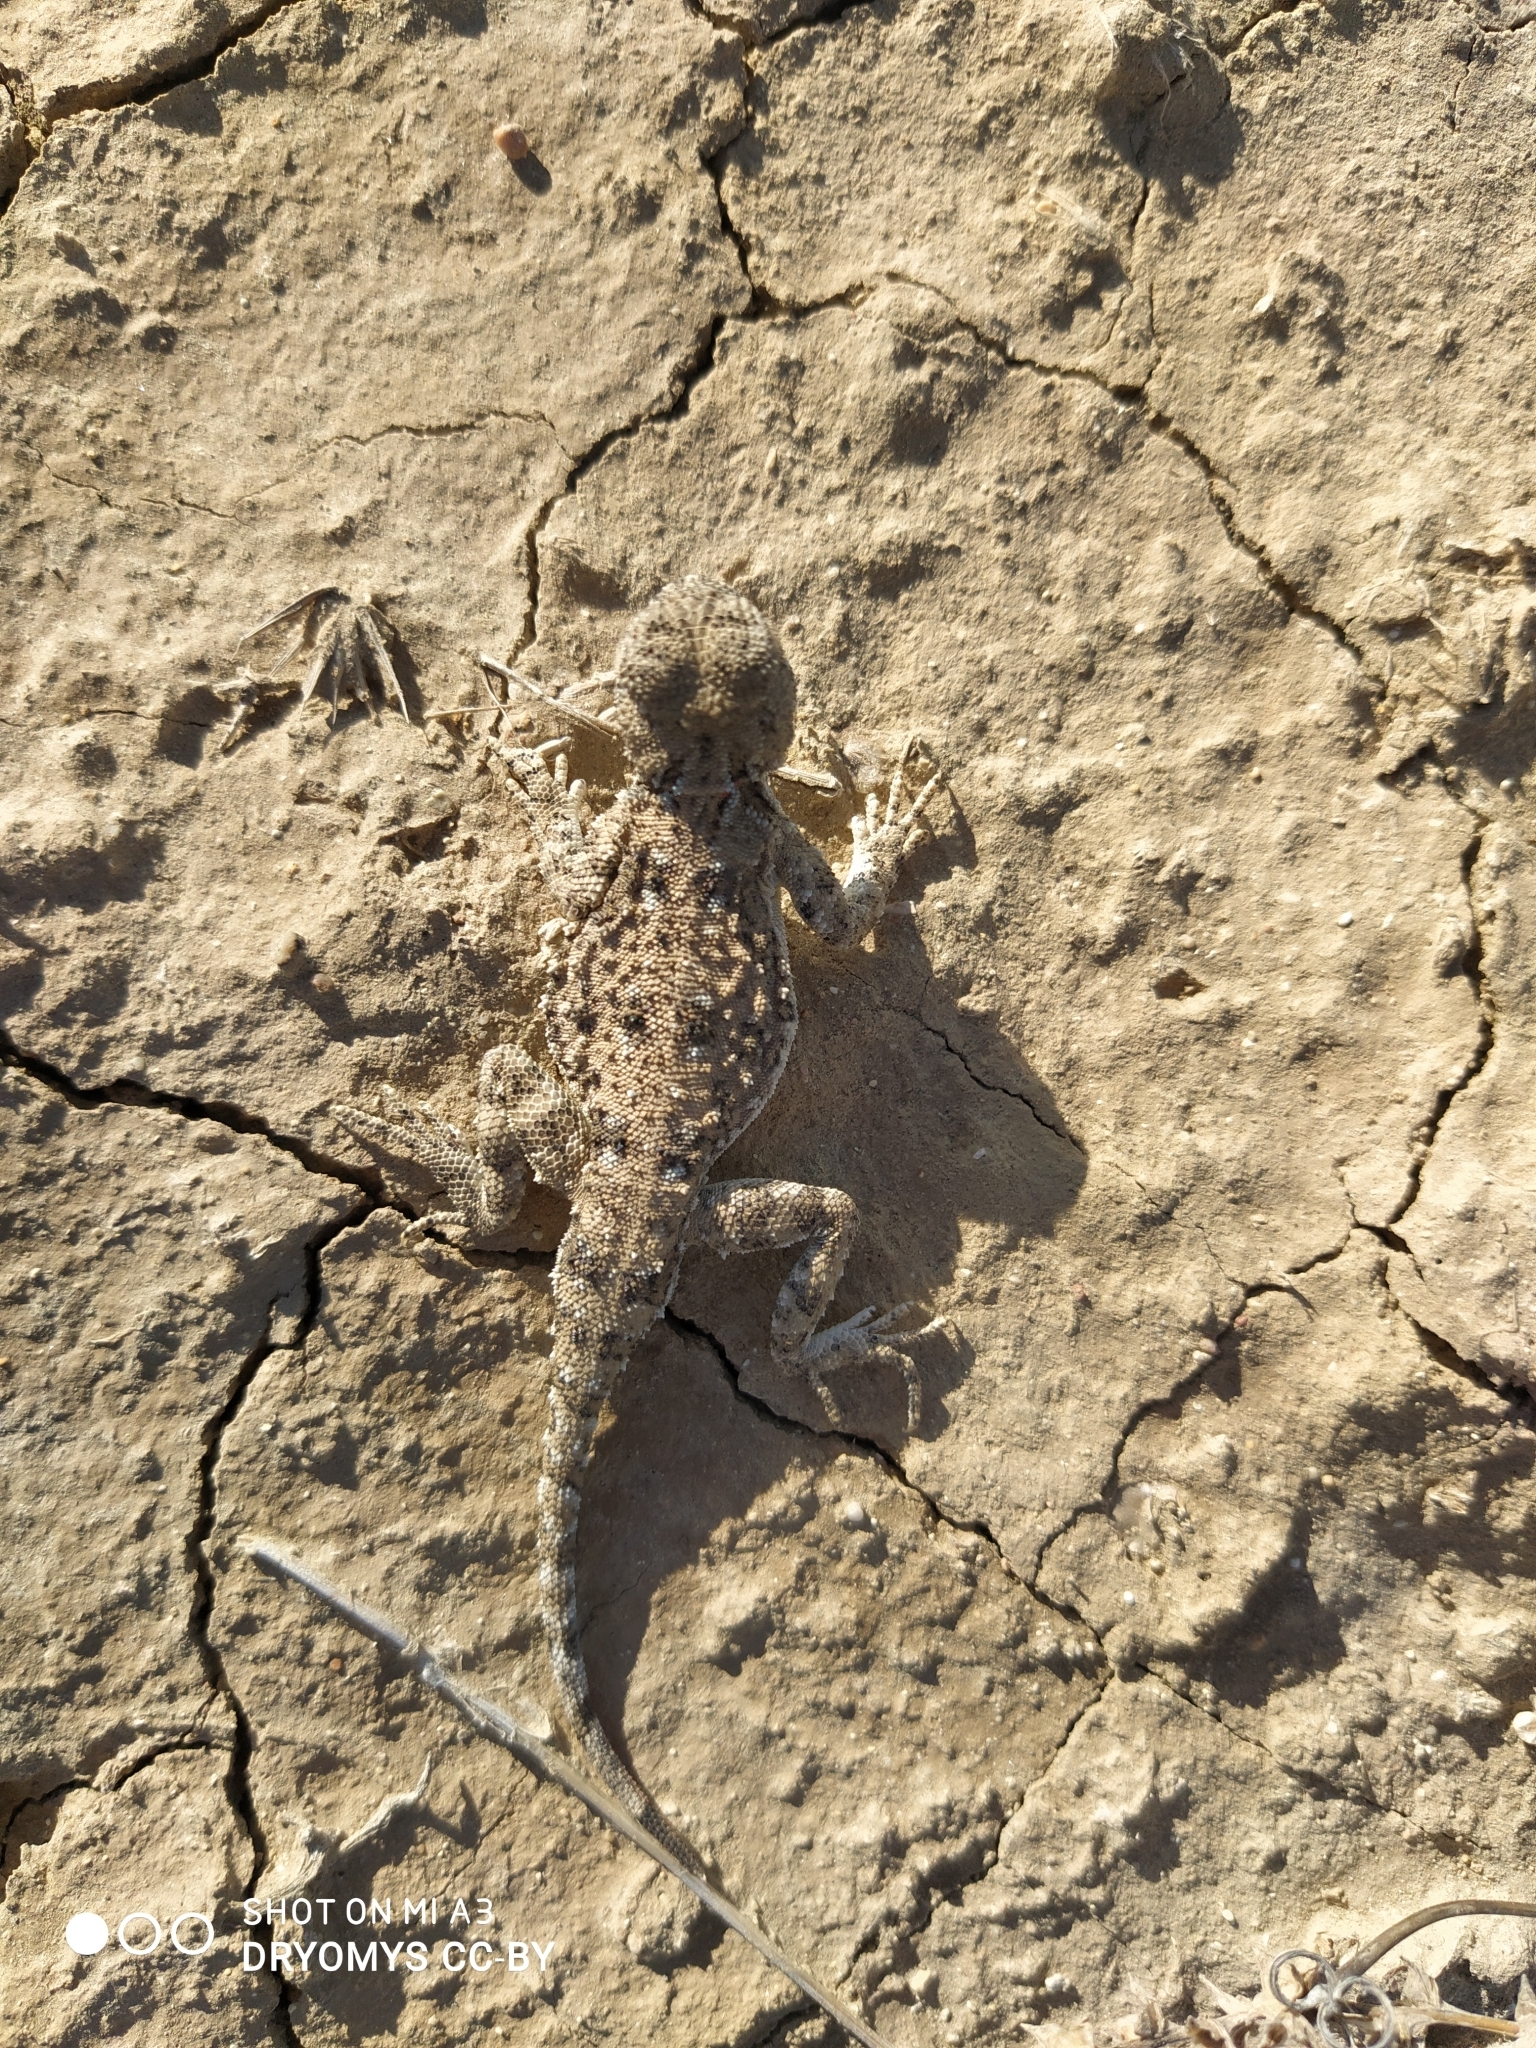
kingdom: Animalia
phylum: Chordata
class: Squamata
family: Agamidae
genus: Phrynocephalus
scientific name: Phrynocephalus helioscopus
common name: Sunwatcher
